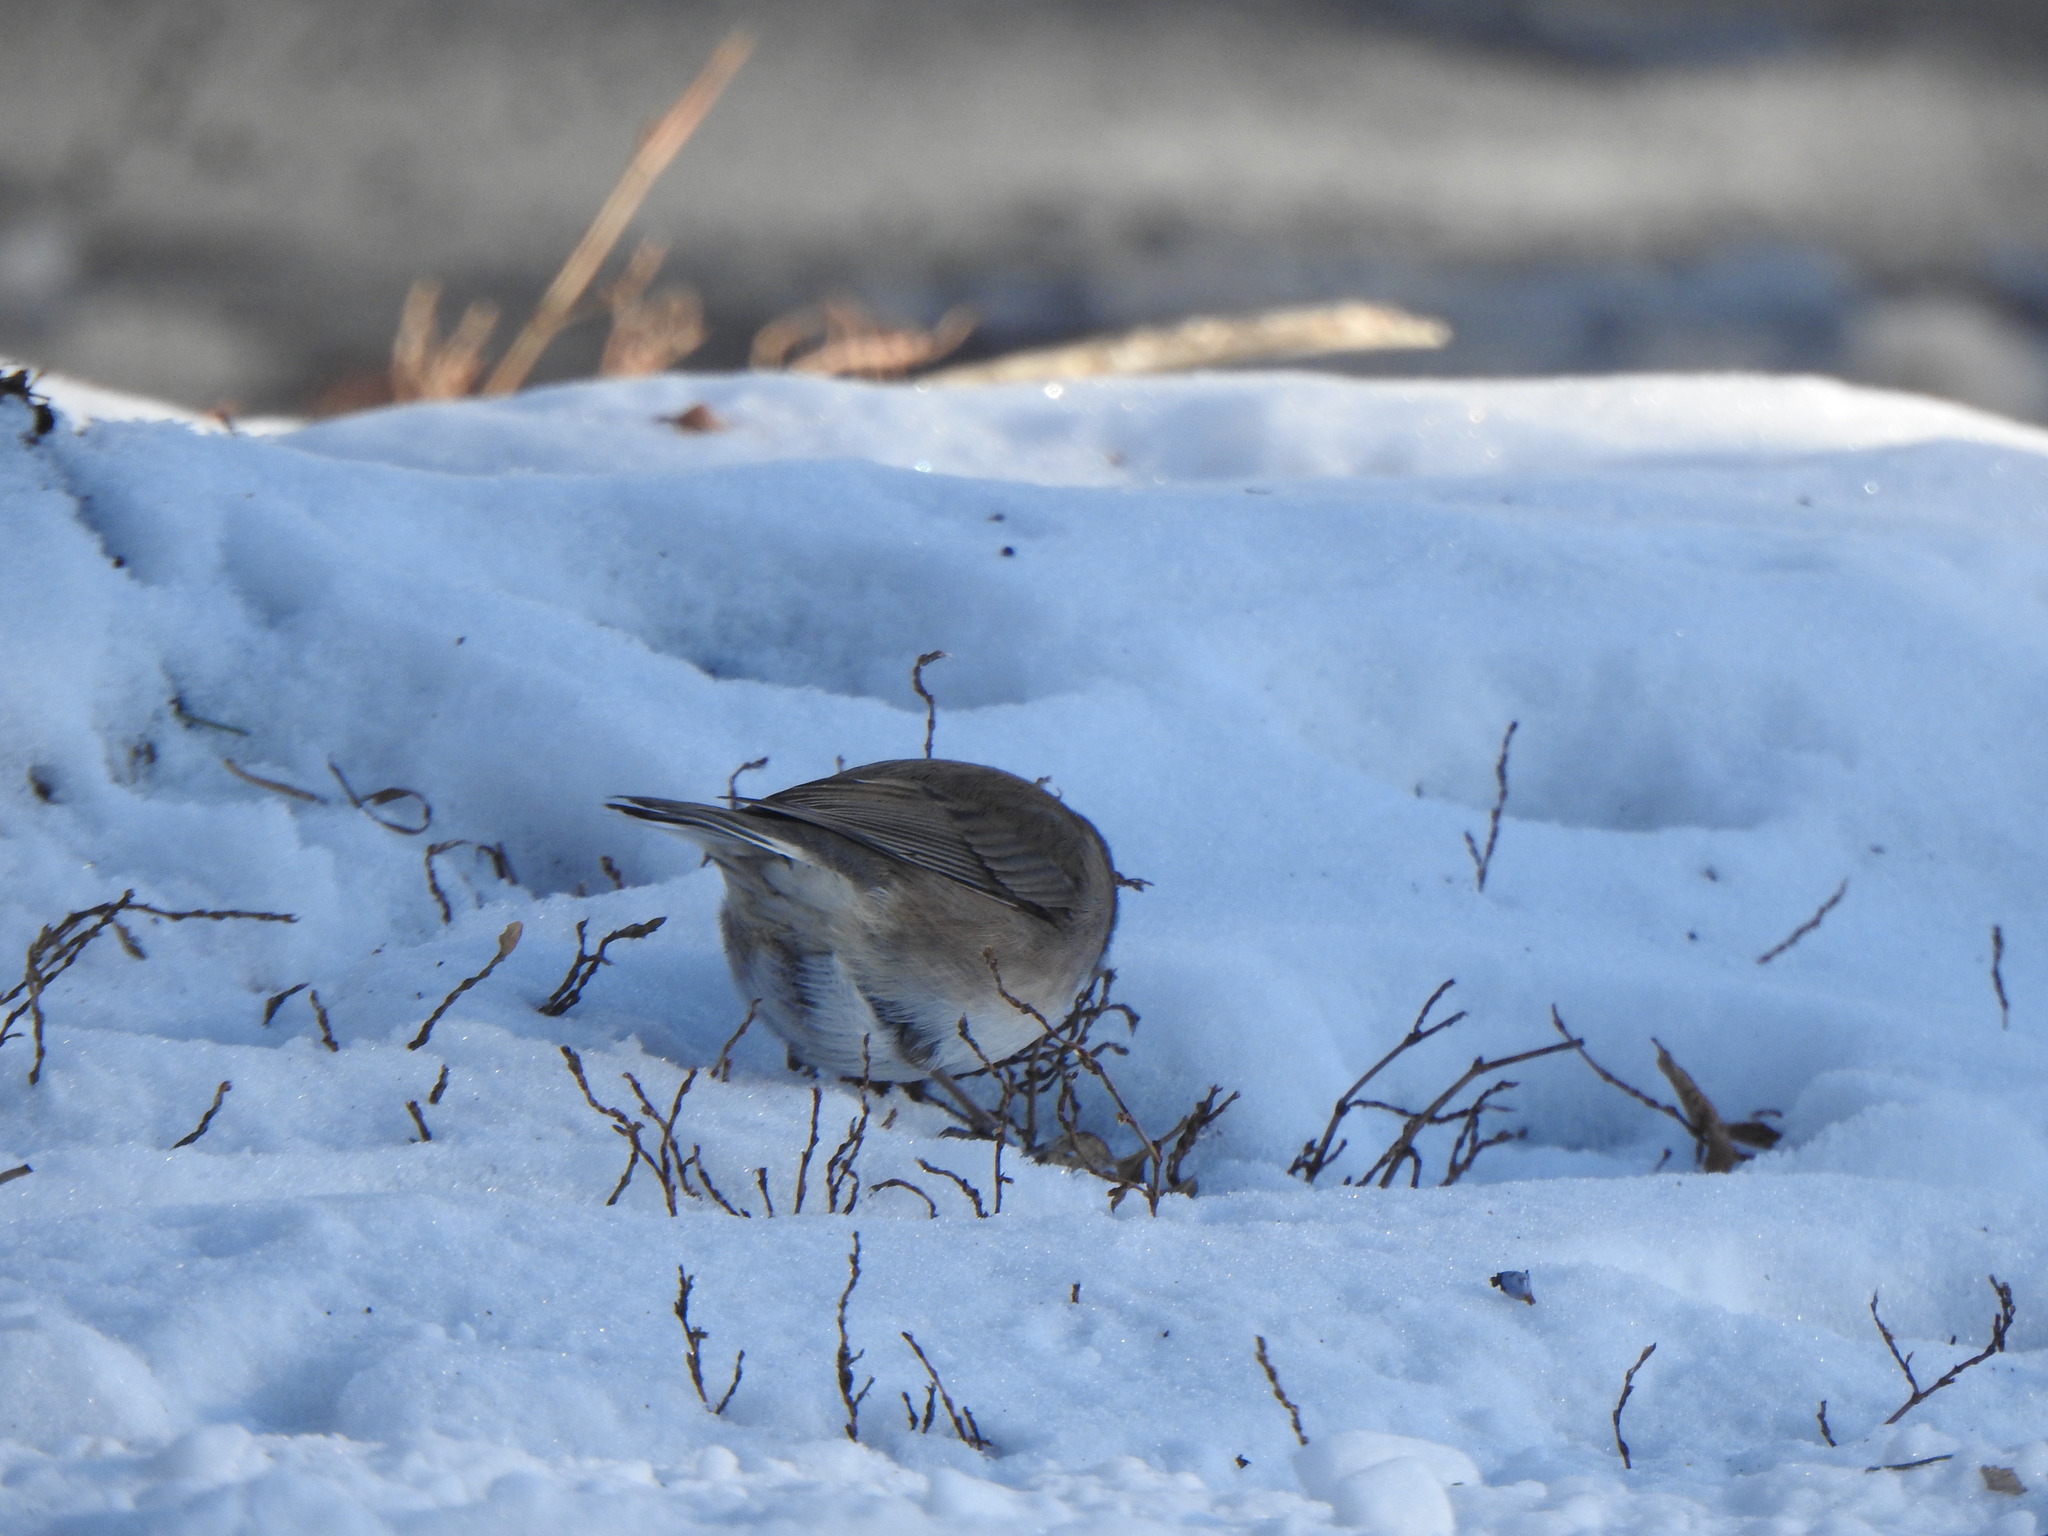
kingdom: Animalia
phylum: Chordata
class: Aves
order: Passeriformes
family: Passerellidae
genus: Junco
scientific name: Junco hyemalis
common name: Dark-eyed junco
